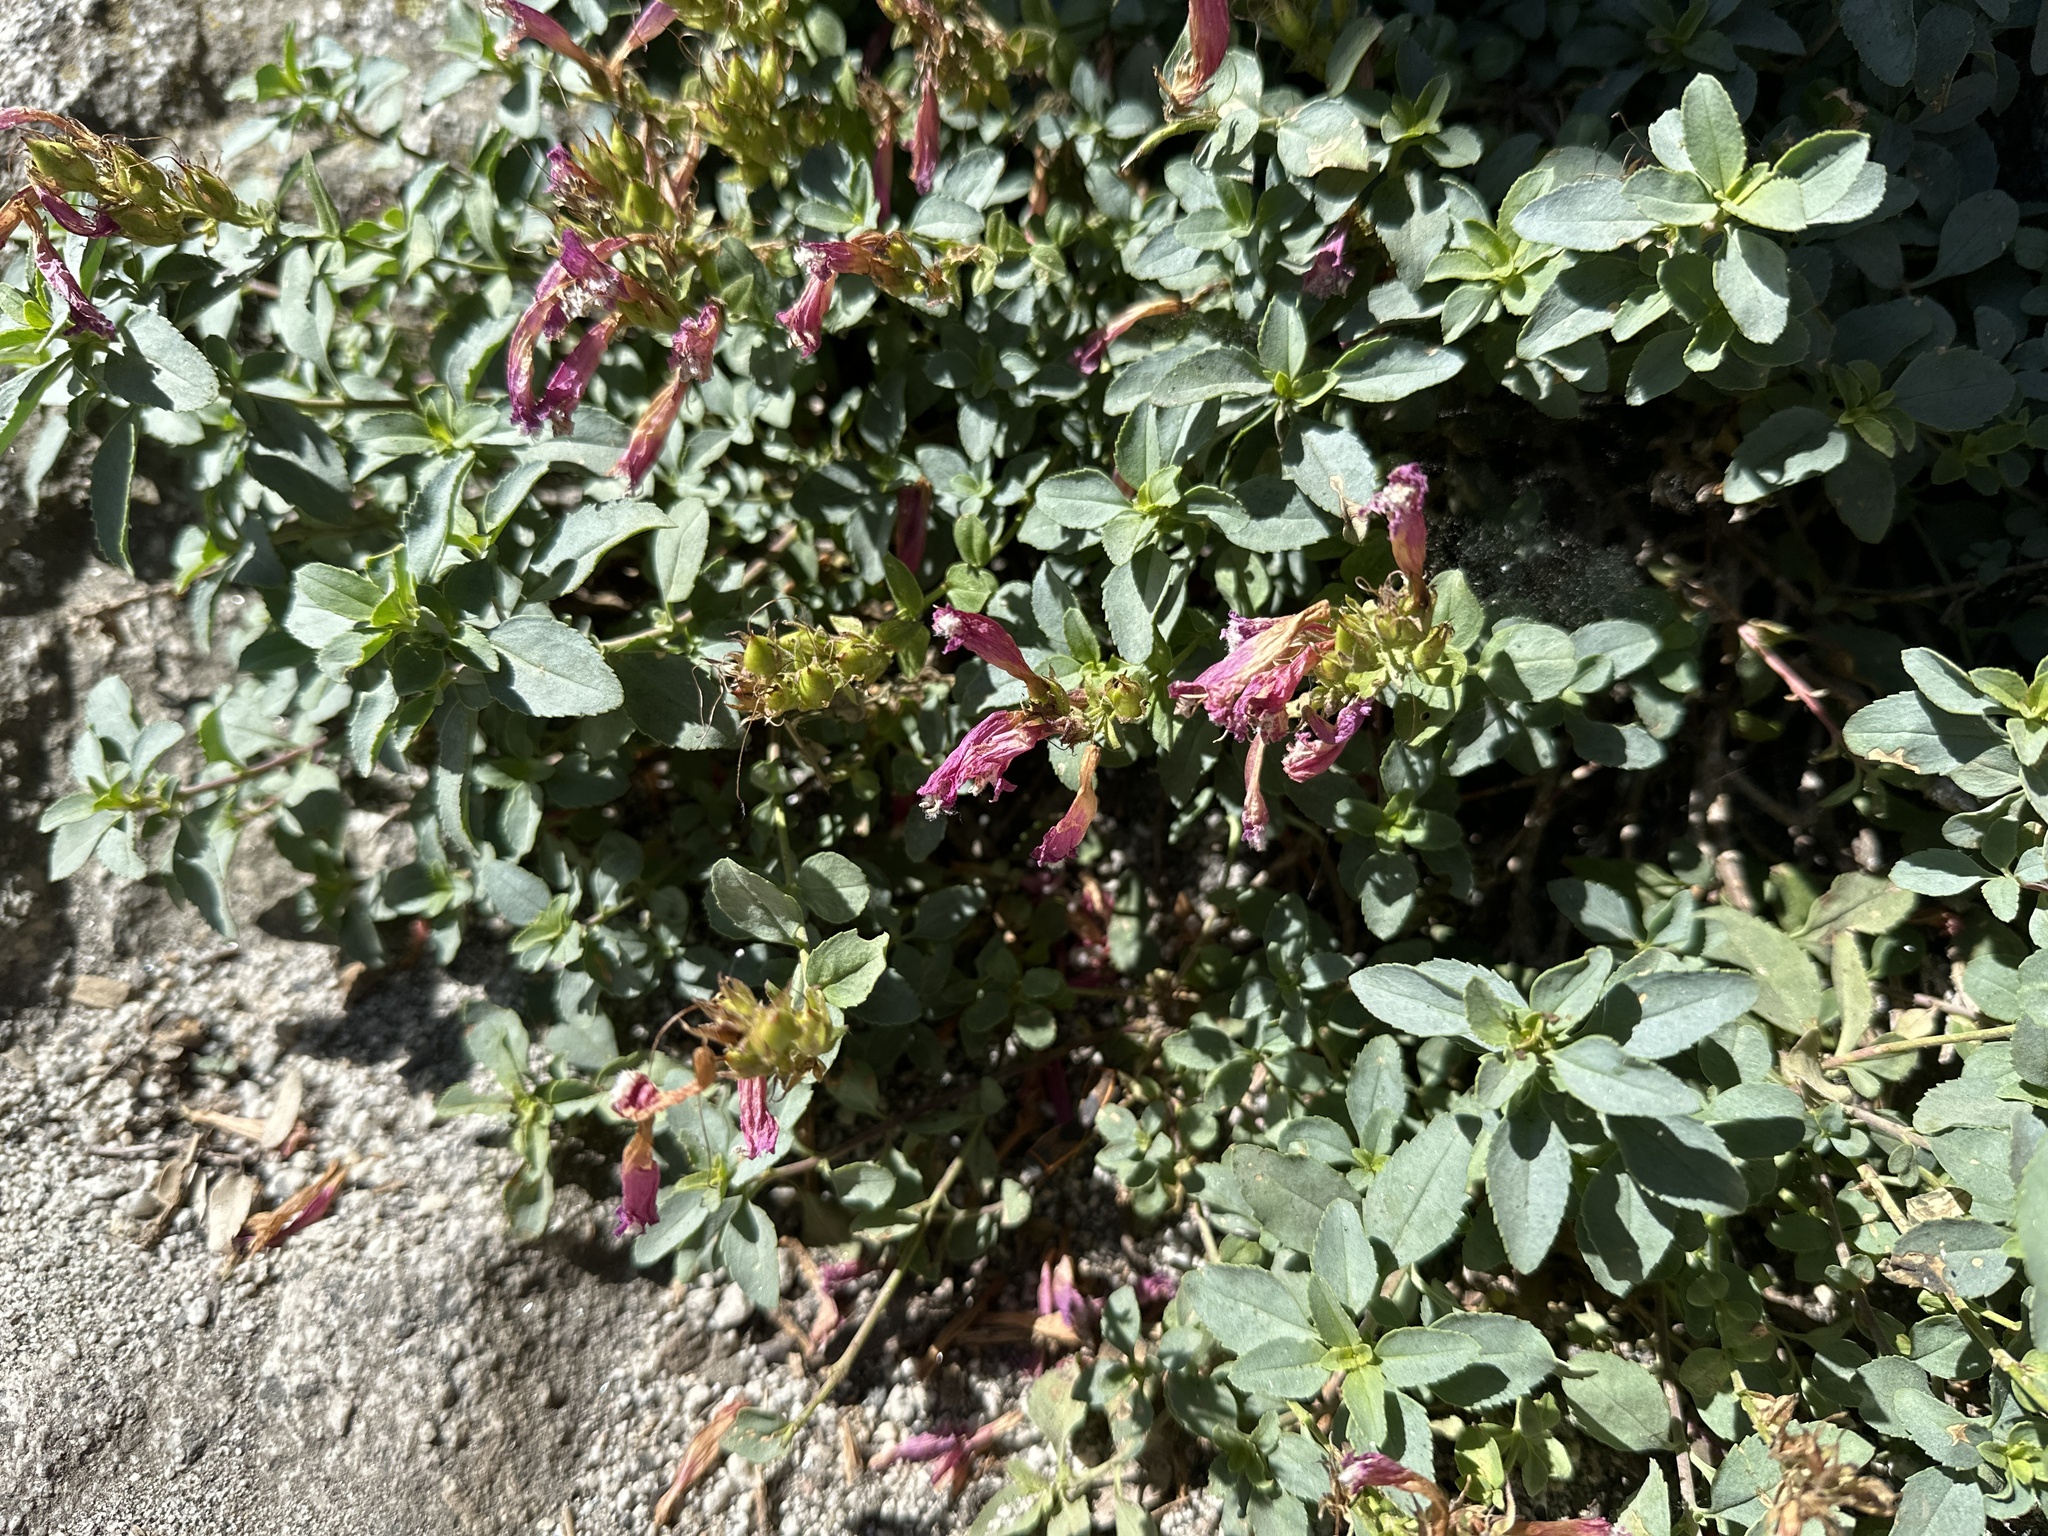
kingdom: Plantae
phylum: Tracheophyta
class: Magnoliopsida
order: Lamiales
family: Plantaginaceae
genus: Penstemon
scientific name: Penstemon newberryi
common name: Mountain-pride
